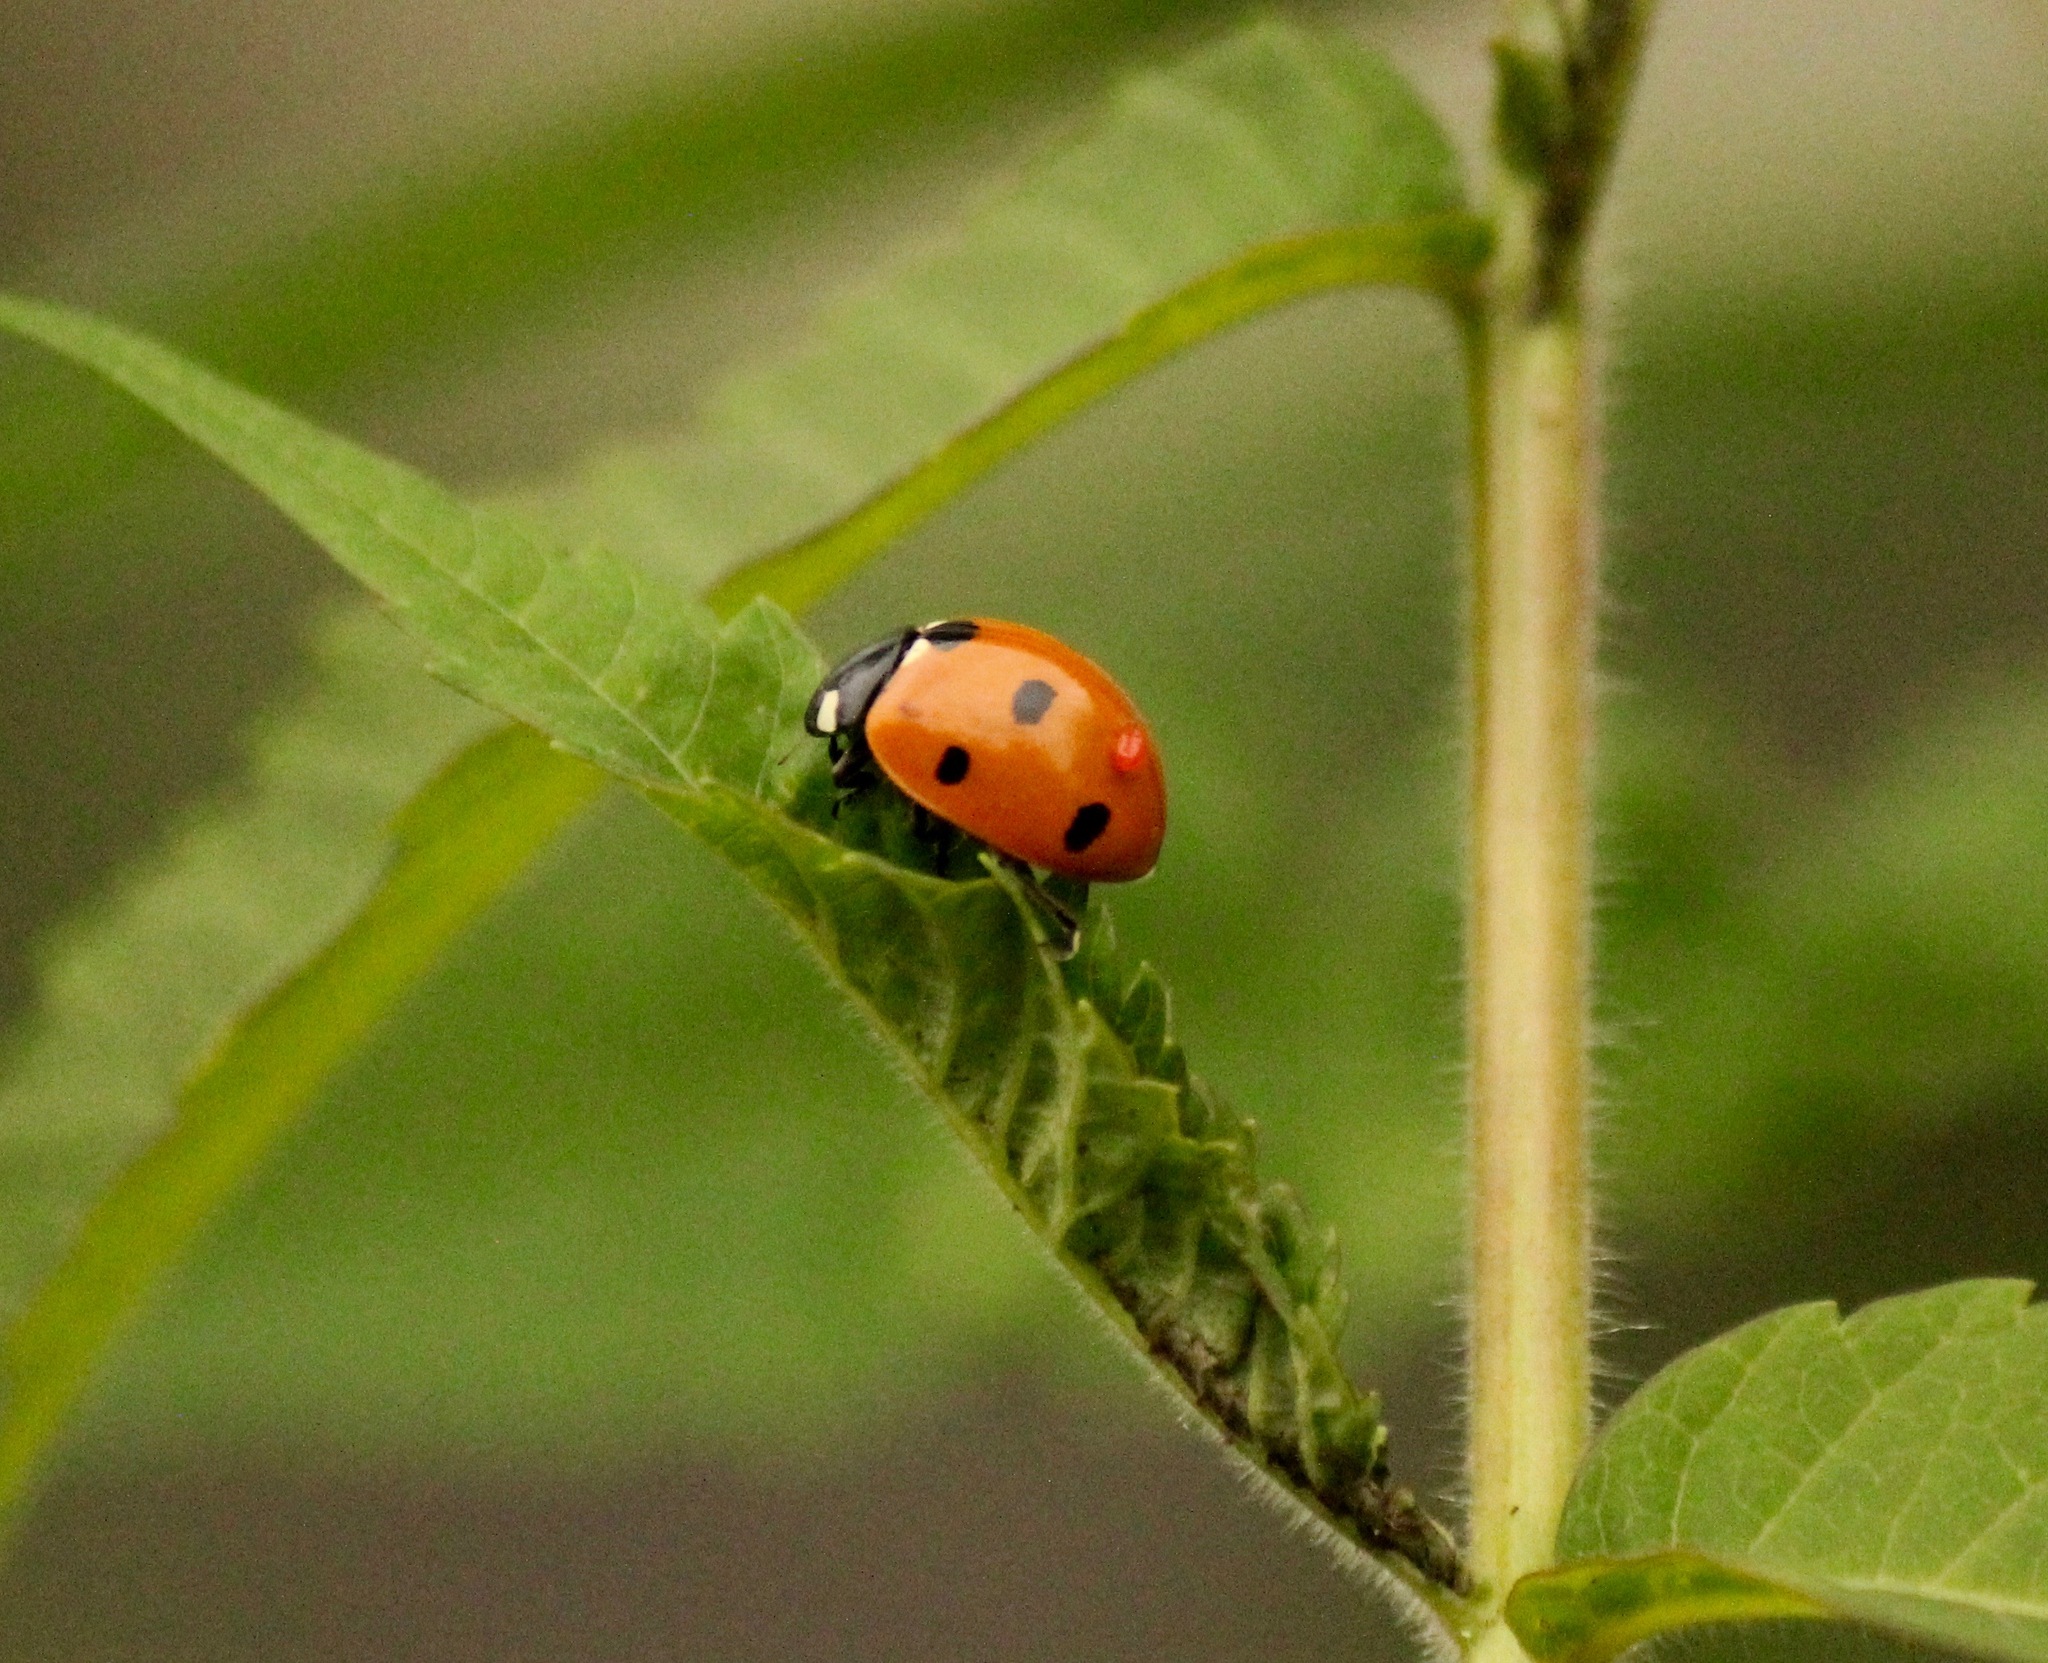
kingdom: Animalia
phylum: Arthropoda
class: Insecta
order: Coleoptera
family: Coccinellidae
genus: Coccinella
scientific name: Coccinella septempunctata
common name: Sevenspotted lady beetle
